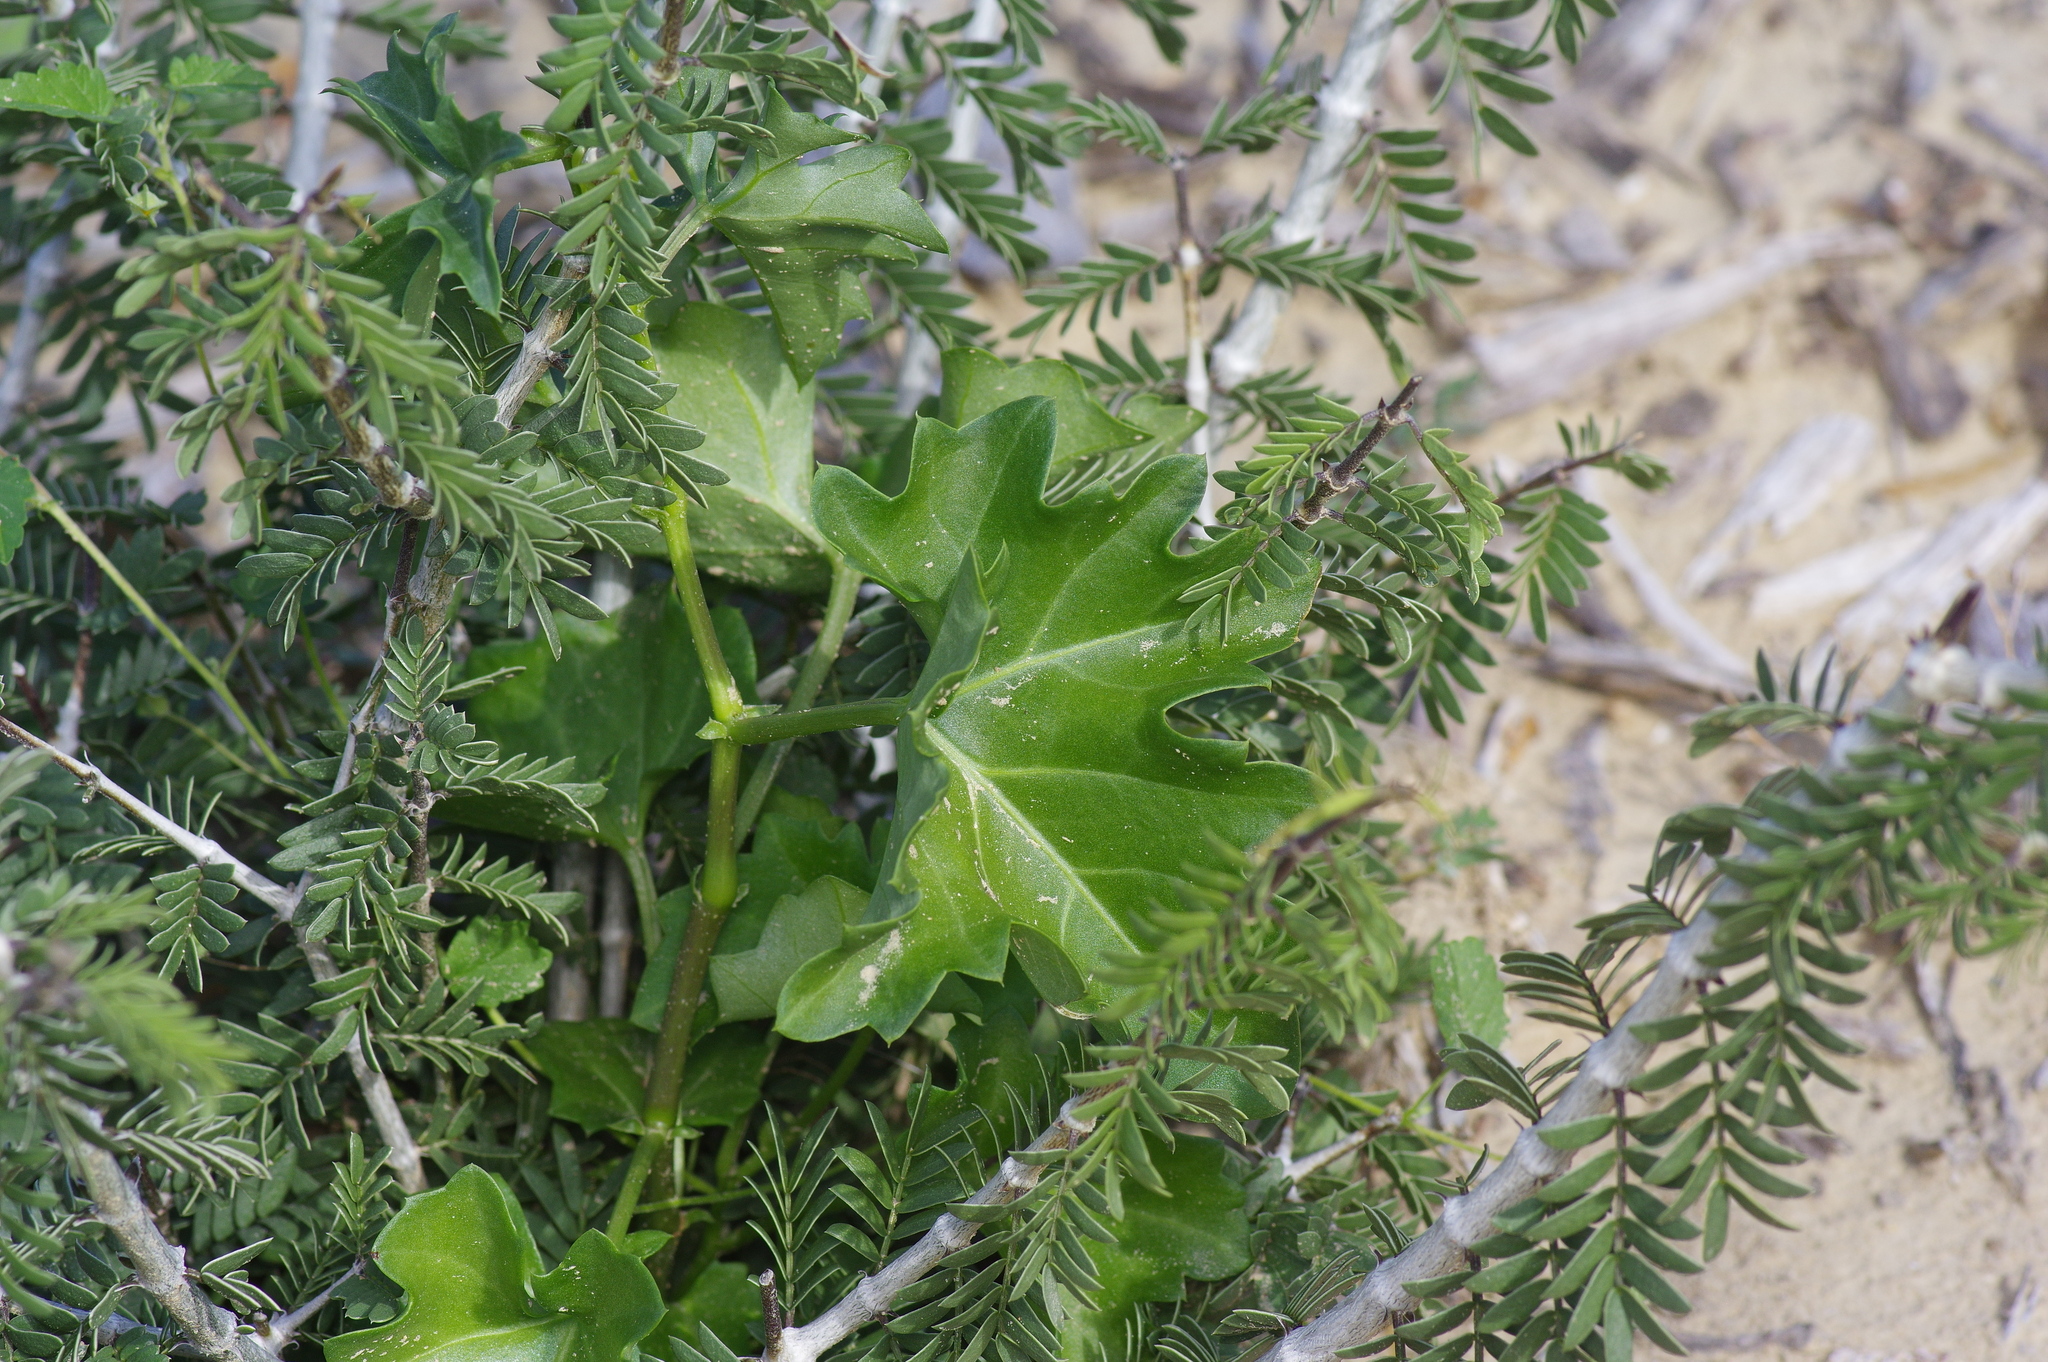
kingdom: Plantae
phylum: Tracheophyta
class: Magnoliopsida
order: Vitales
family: Vitaceae
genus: Cissus
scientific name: Cissus trifoliata
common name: Vine-sorrel
